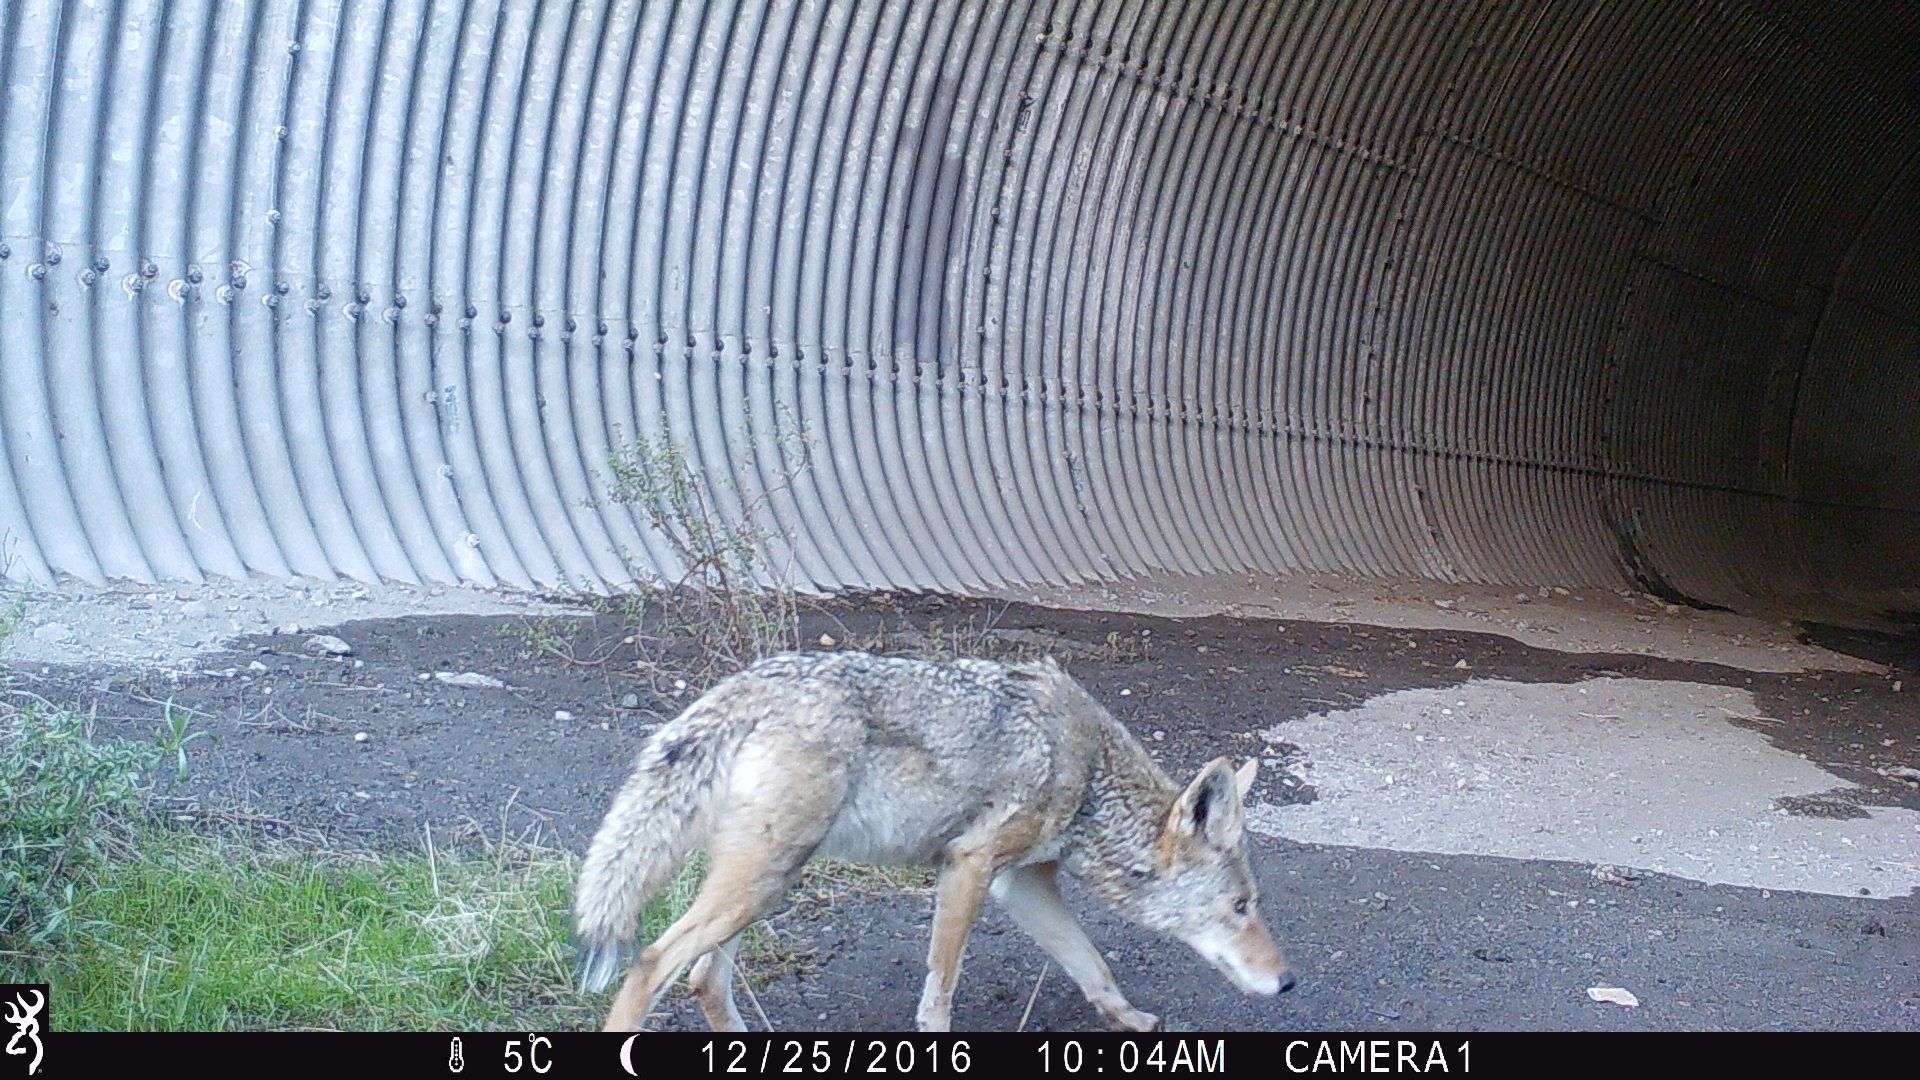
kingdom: Animalia
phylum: Chordata
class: Mammalia
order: Carnivora
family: Canidae
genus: Canis
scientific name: Canis latrans
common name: Coyote
